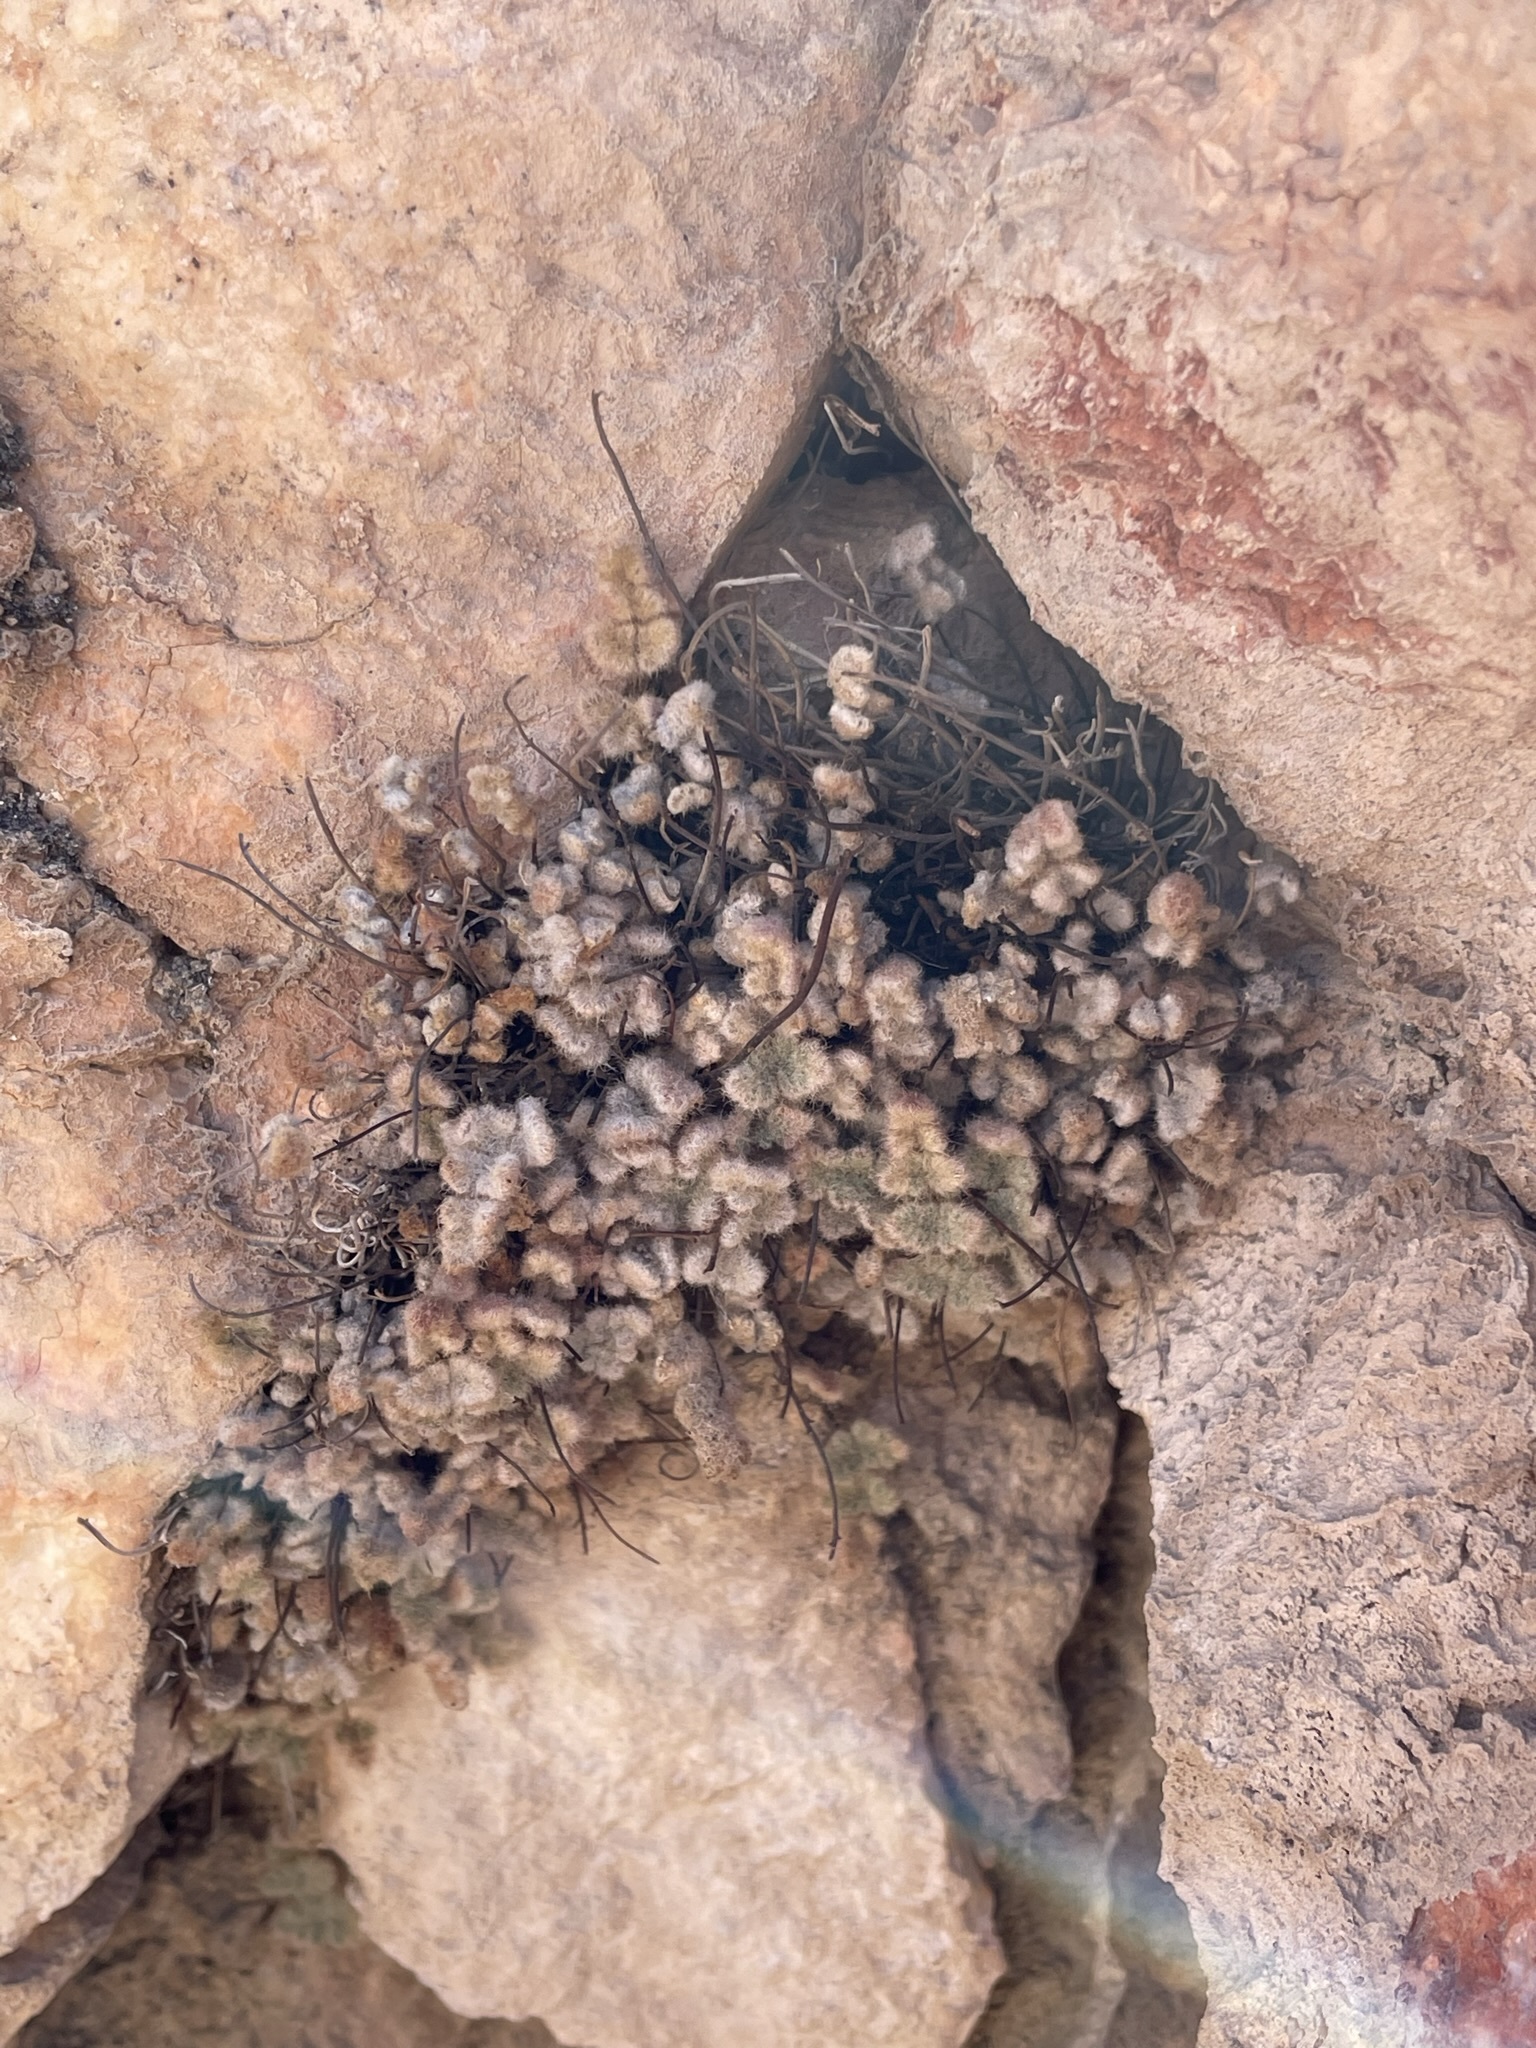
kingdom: Plantae
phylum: Tracheophyta
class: Polypodiopsida
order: Polypodiales
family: Pteridaceae
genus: Myriopteris
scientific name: Myriopteris parryi
